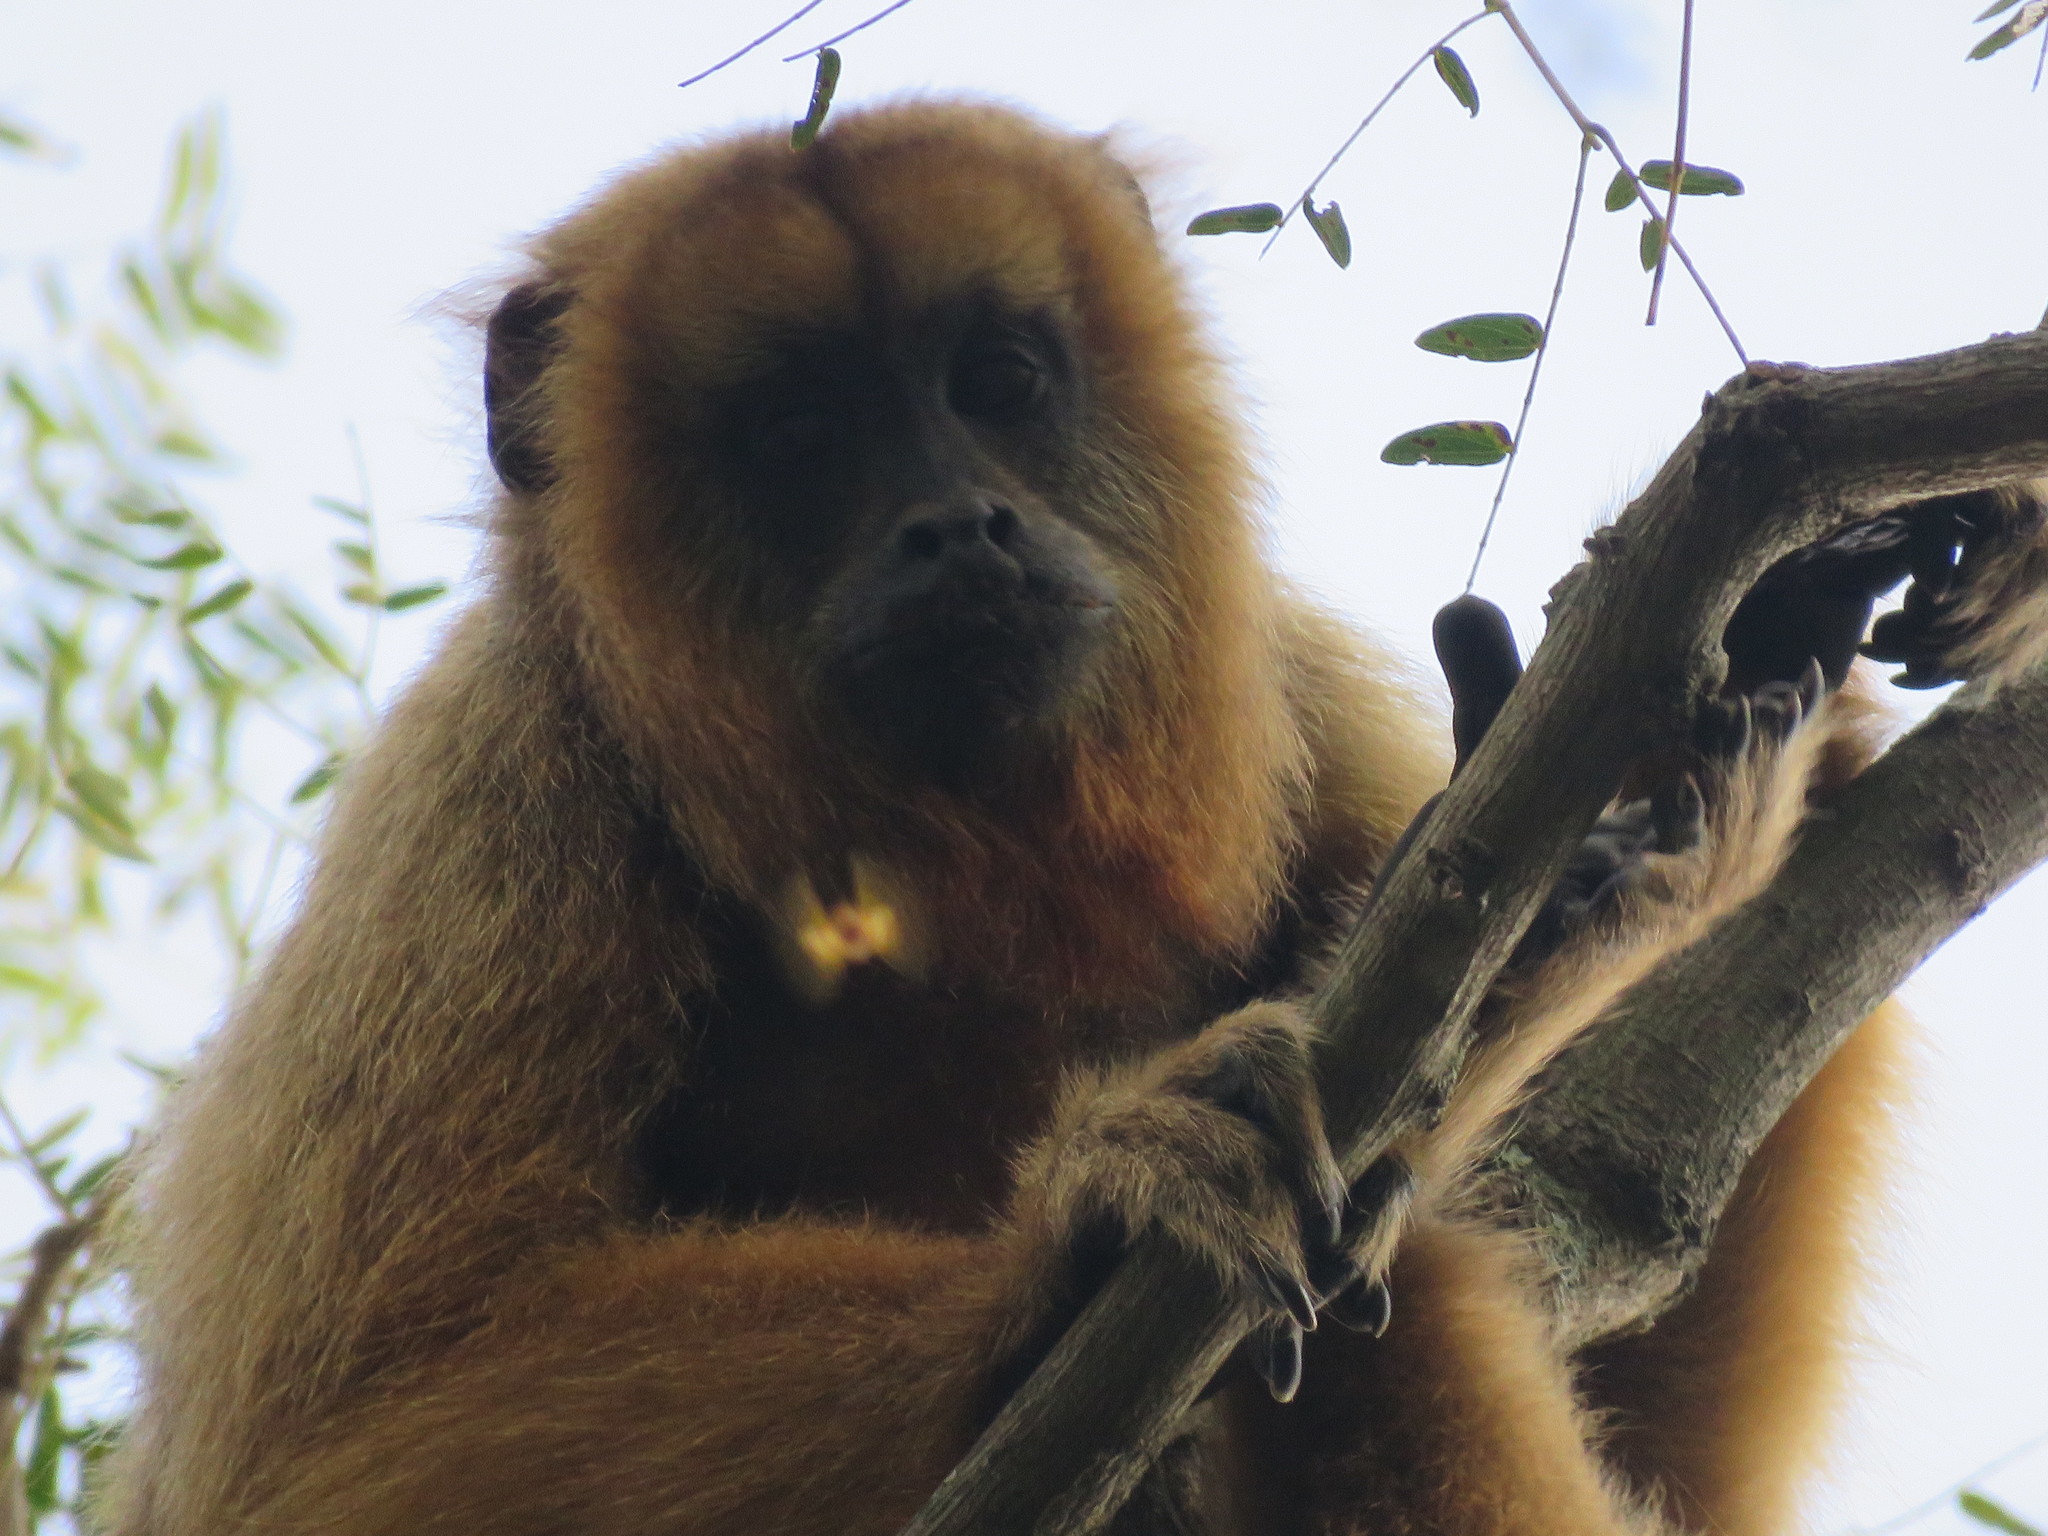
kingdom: Animalia
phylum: Chordata
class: Mammalia
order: Primates
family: Atelidae
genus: Alouatta
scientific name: Alouatta caraya
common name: Black howler
